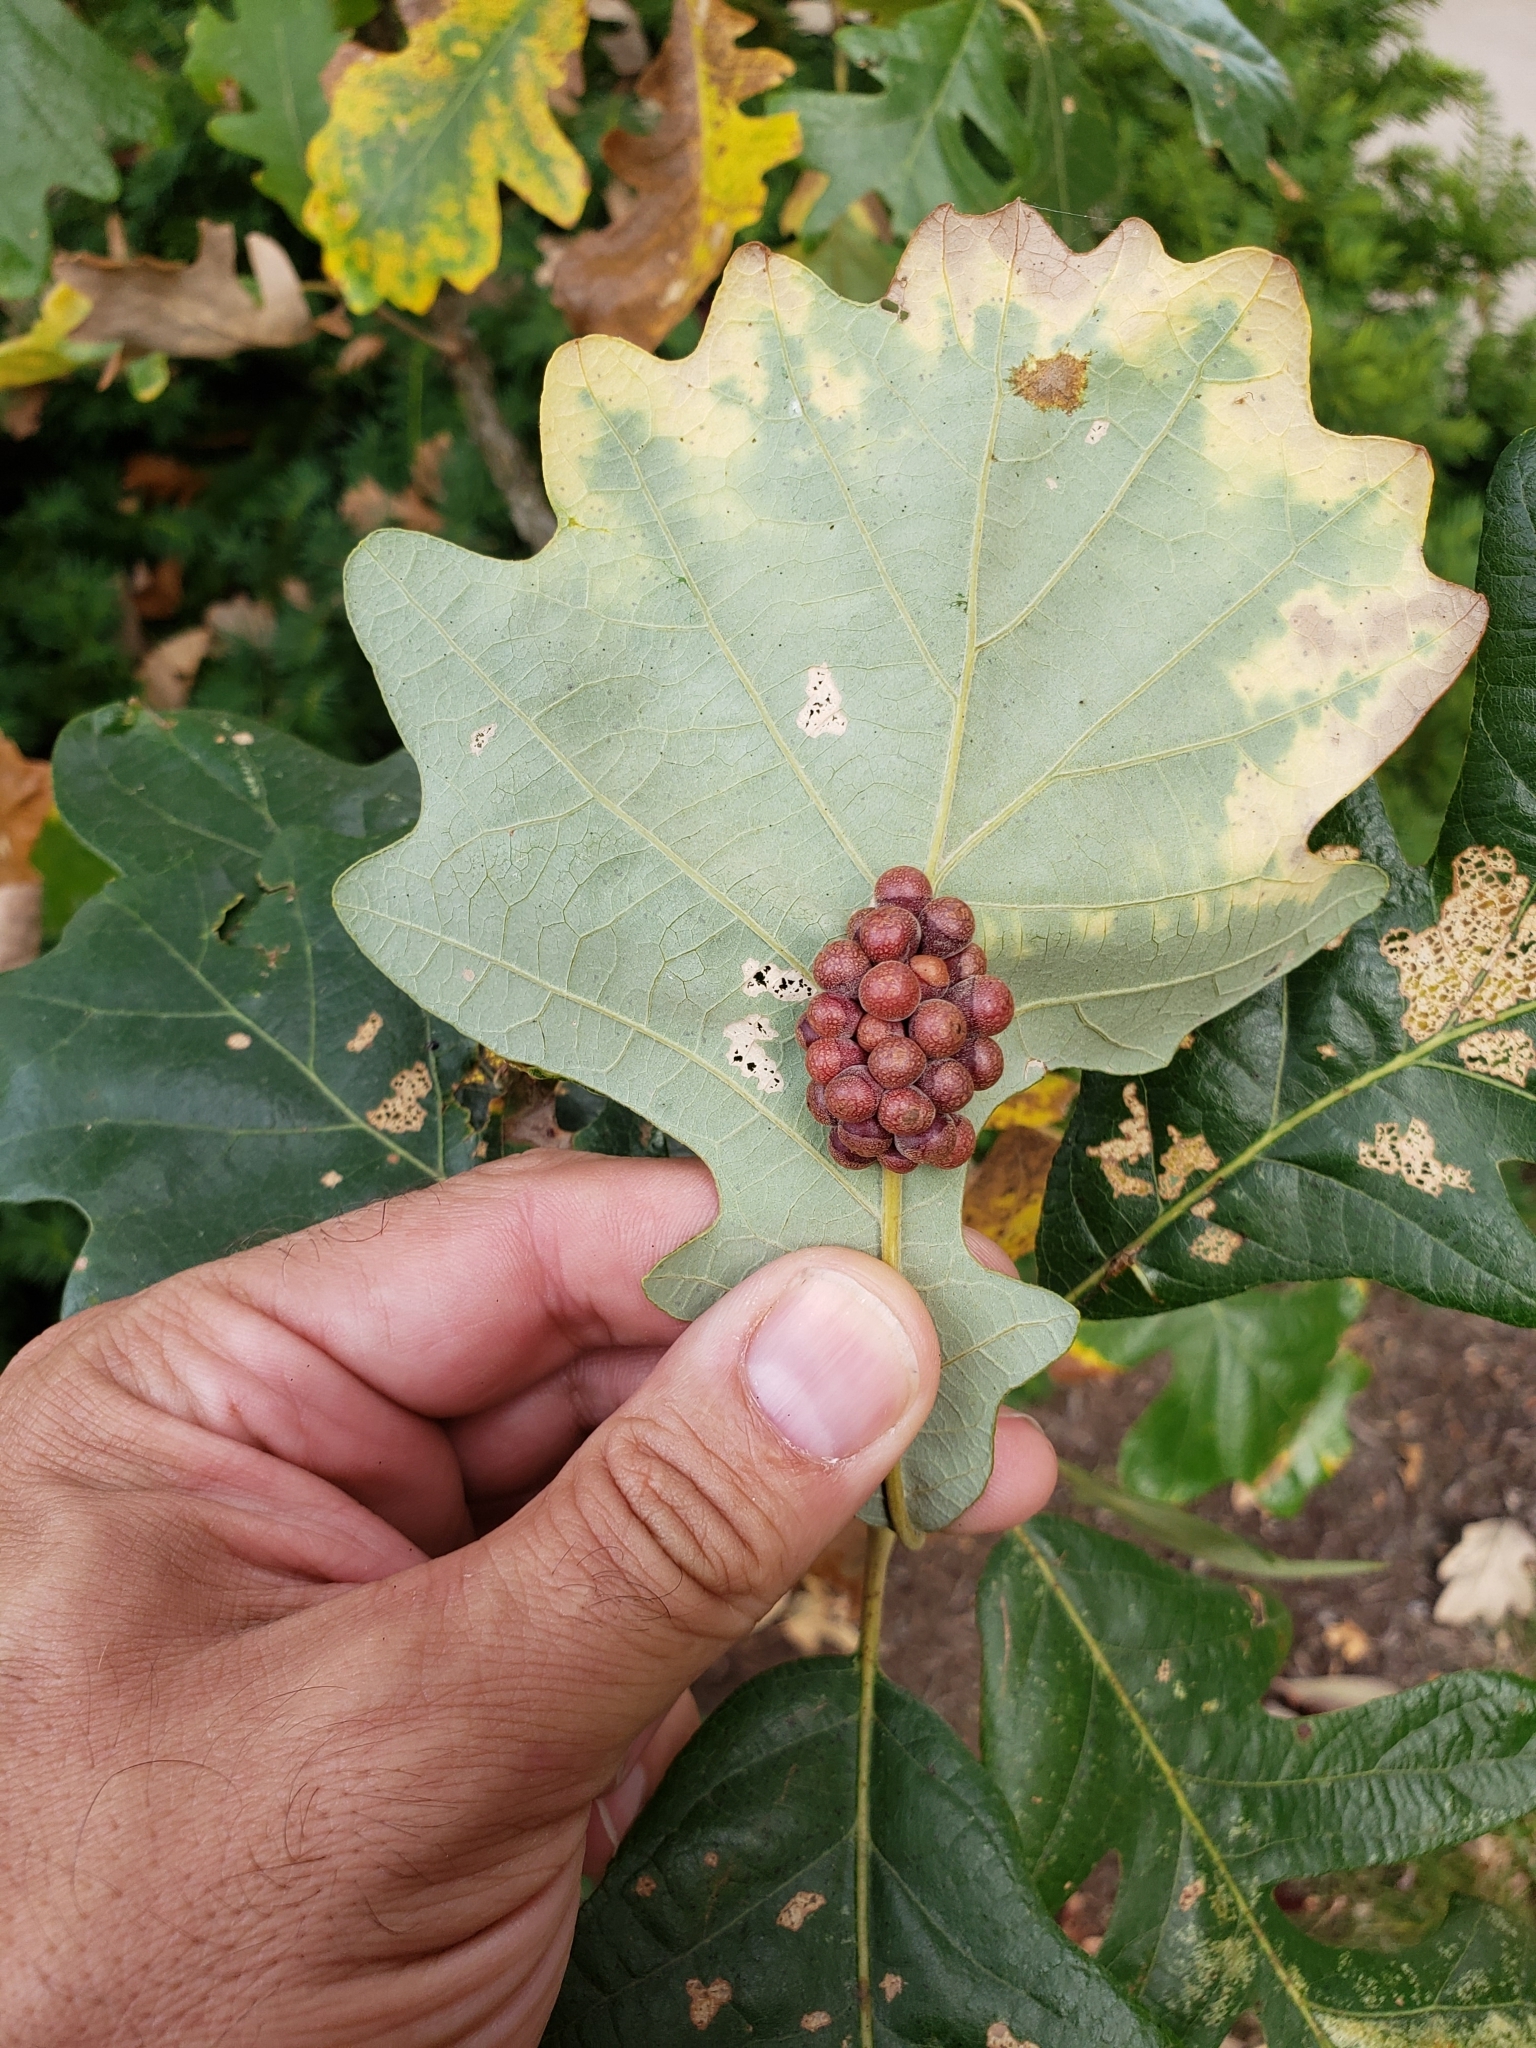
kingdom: Animalia
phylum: Arthropoda
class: Insecta
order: Hymenoptera
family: Cynipidae
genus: Andricus
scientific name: Andricus
